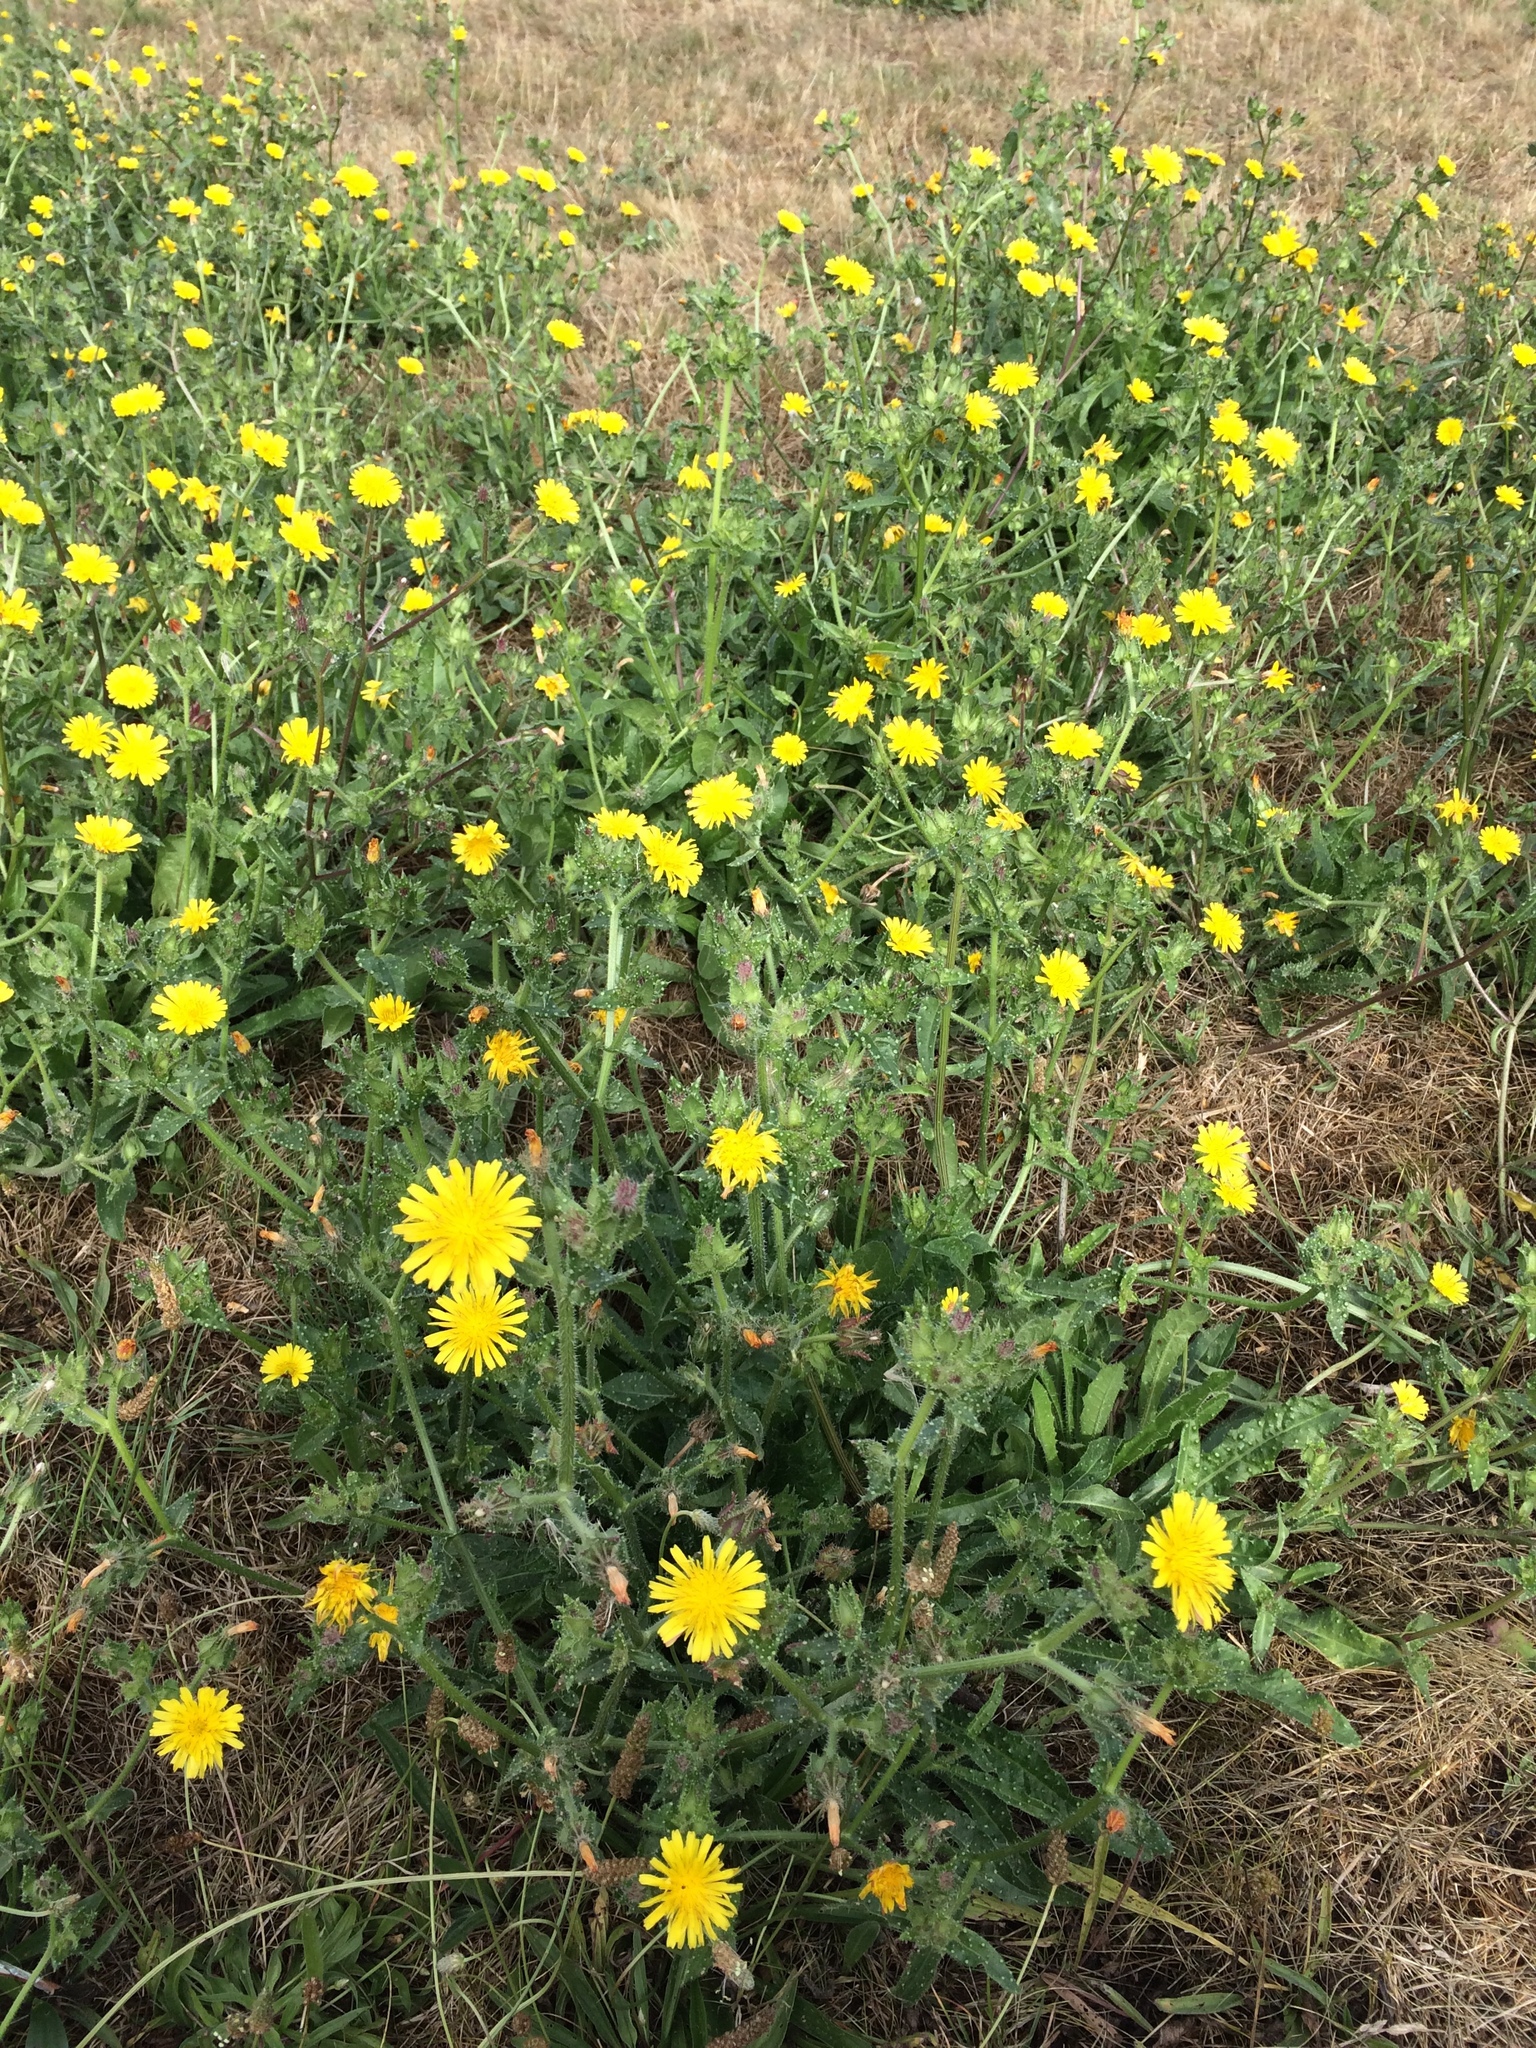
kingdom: Plantae
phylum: Tracheophyta
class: Magnoliopsida
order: Asterales
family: Asteraceae
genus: Helminthotheca
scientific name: Helminthotheca echioides
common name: Ox-tongue
